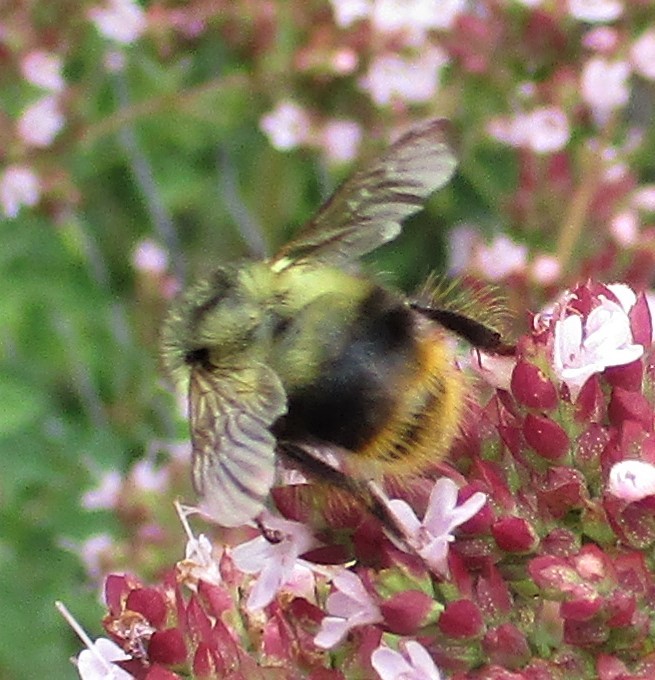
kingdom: Animalia
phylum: Arthropoda
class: Insecta
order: Hymenoptera
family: Apidae
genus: Bombus
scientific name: Bombus mixtus
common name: Fuzzy-horned bumble bee
